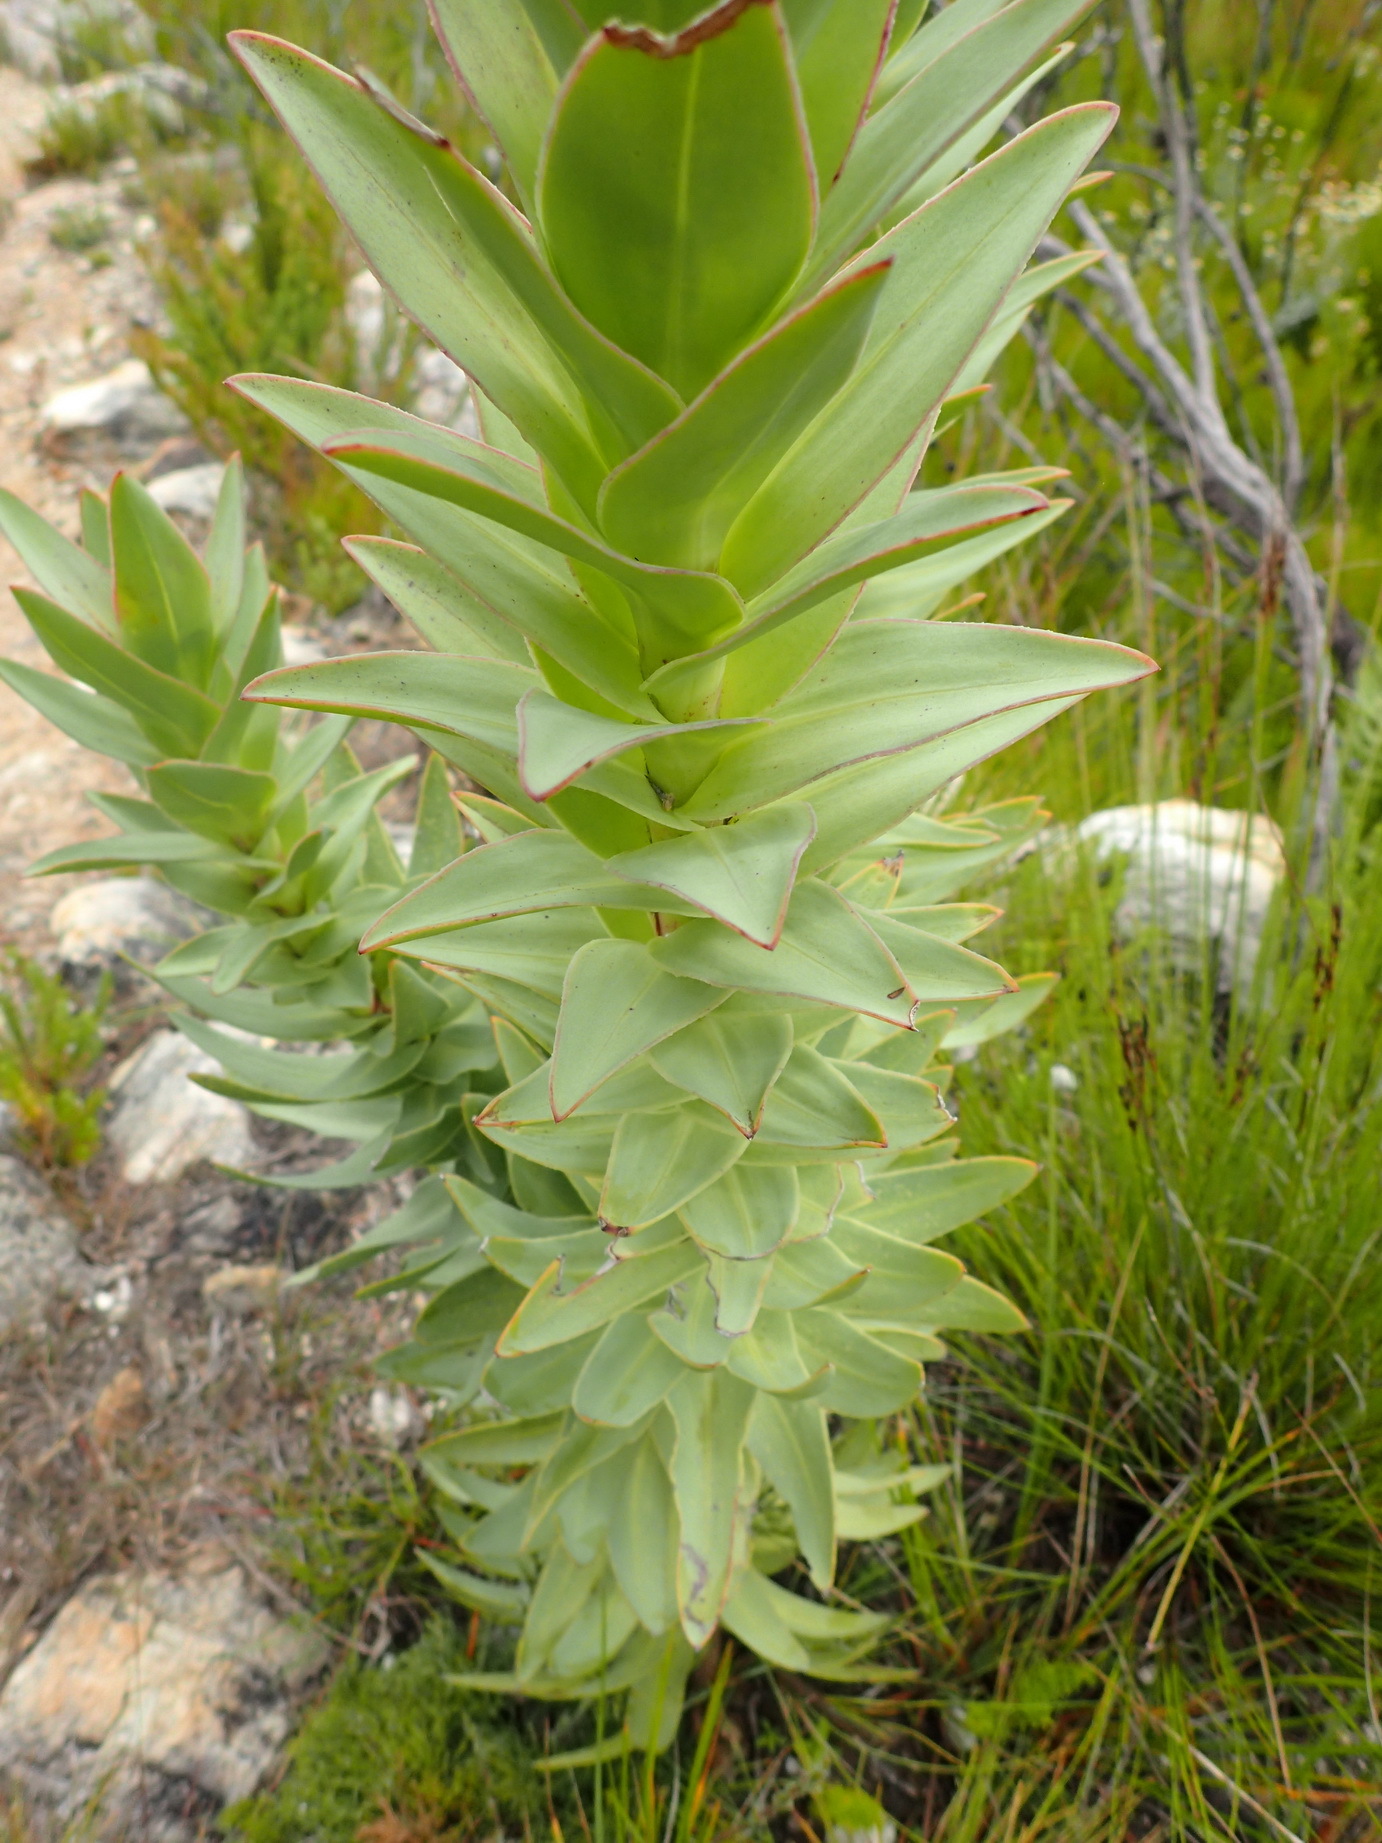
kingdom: Plantae
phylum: Tracheophyta
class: Magnoliopsida
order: Asterales
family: Asteraceae
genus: Osteospermum
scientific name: Osteospermum corymbosum
